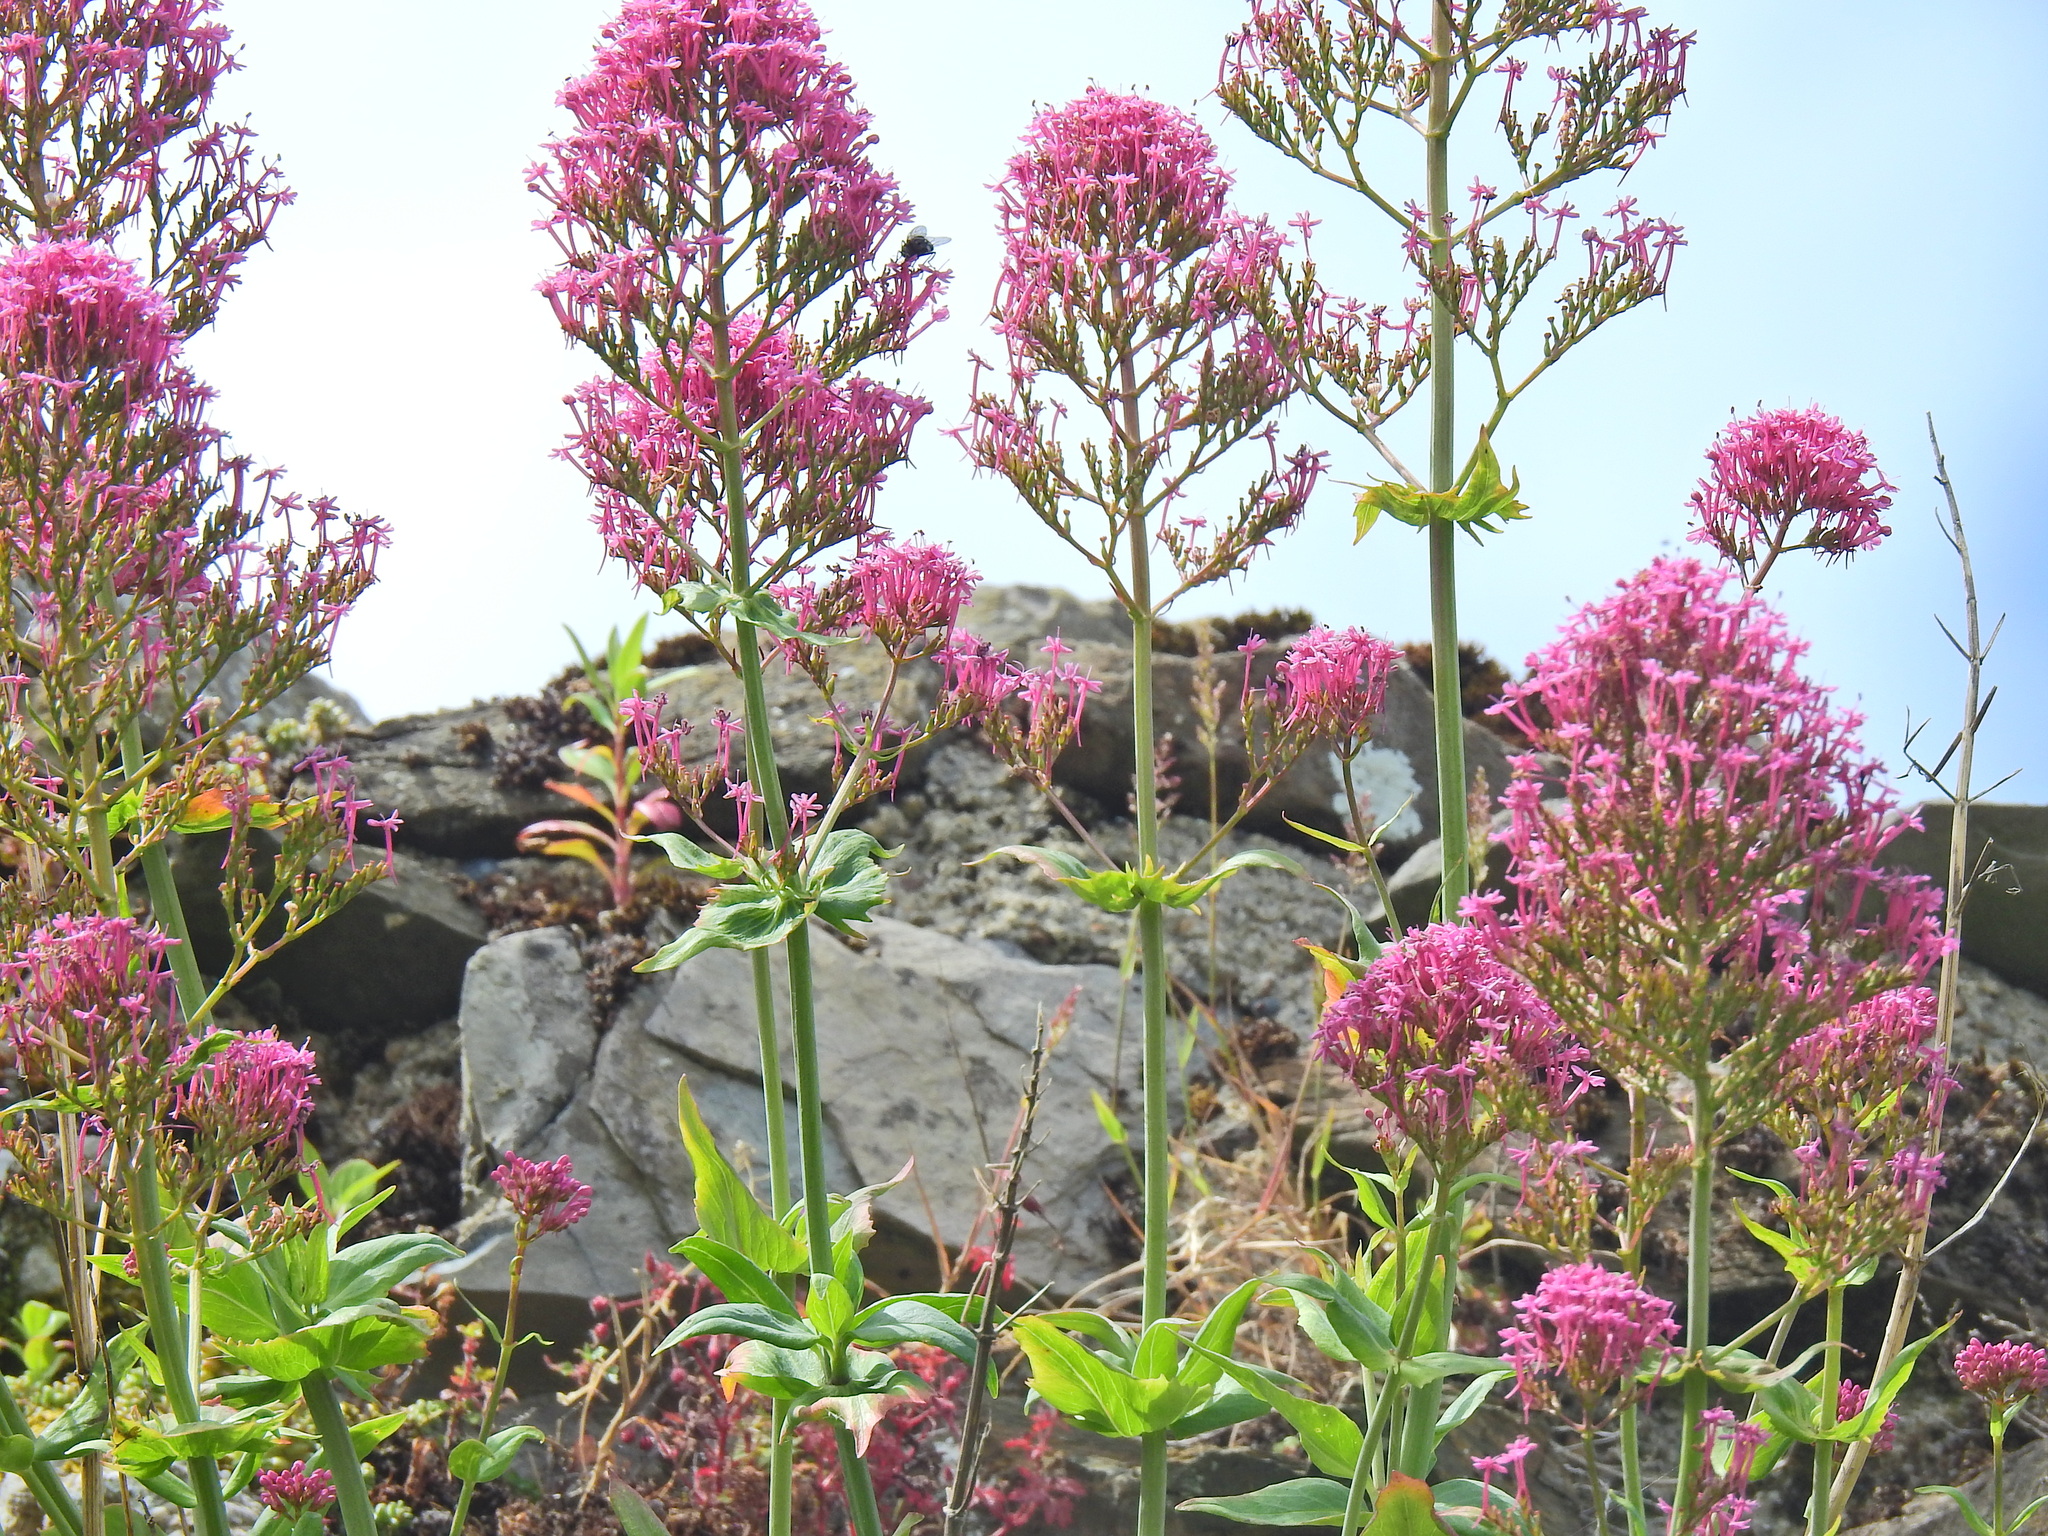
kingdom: Plantae
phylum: Tracheophyta
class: Magnoliopsida
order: Dipsacales
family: Caprifoliaceae
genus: Centranthus
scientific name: Centranthus ruber
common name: Red valerian
